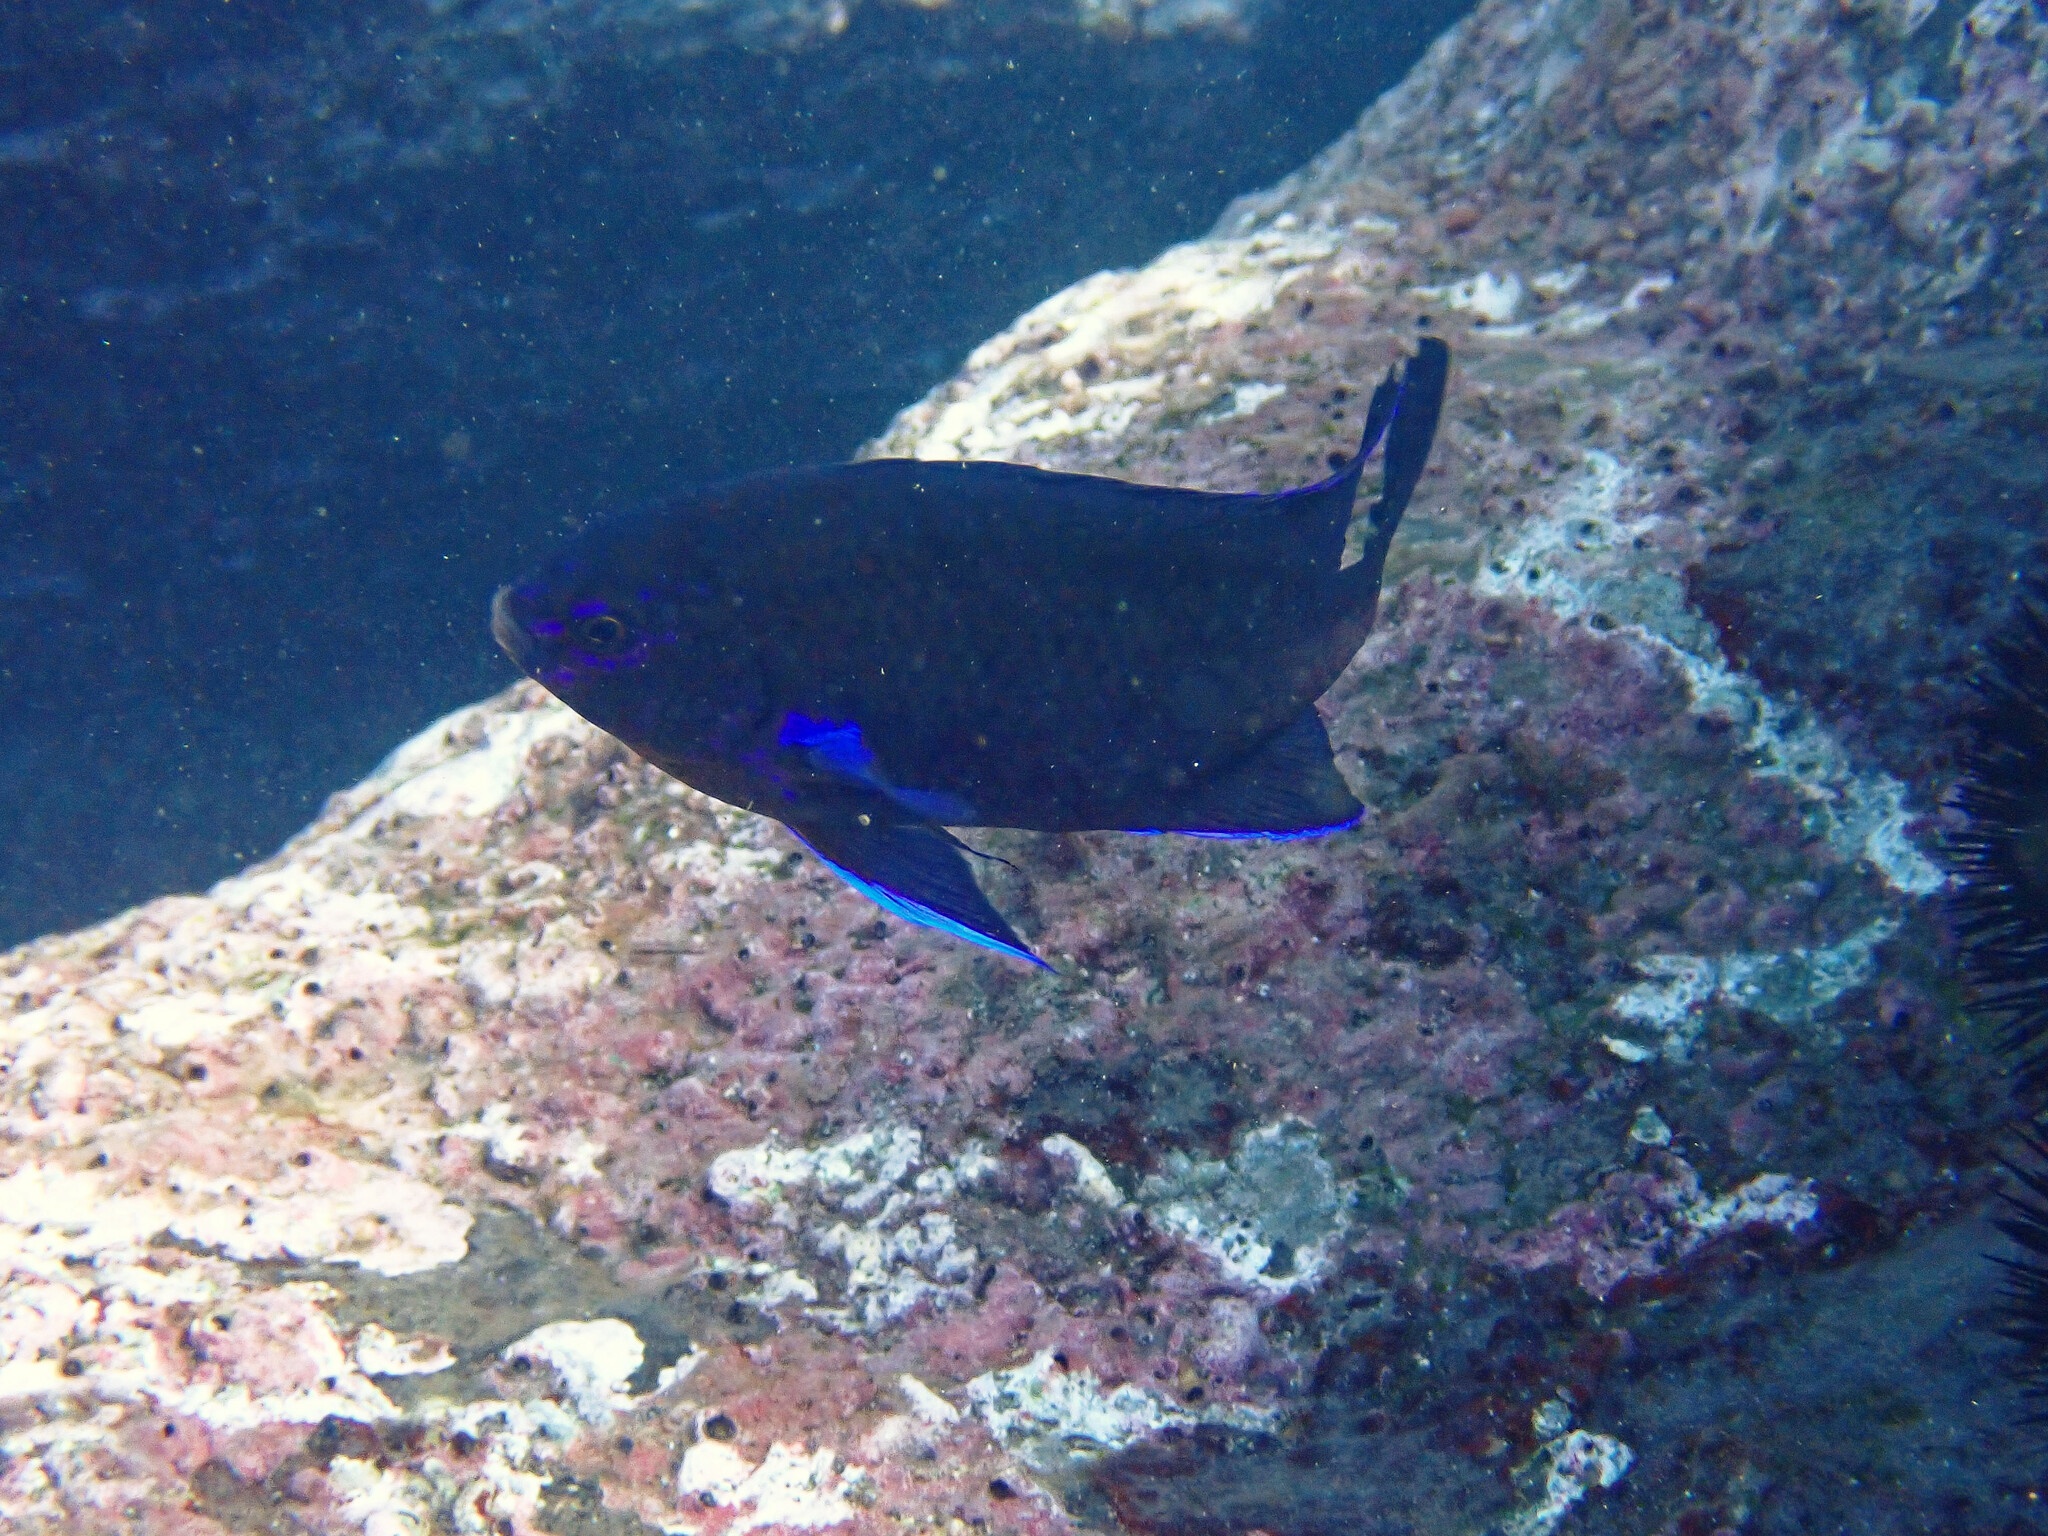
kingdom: Animalia
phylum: Chordata
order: Perciformes
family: Pomacentridae
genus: Similiparma
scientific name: Similiparma lurida
